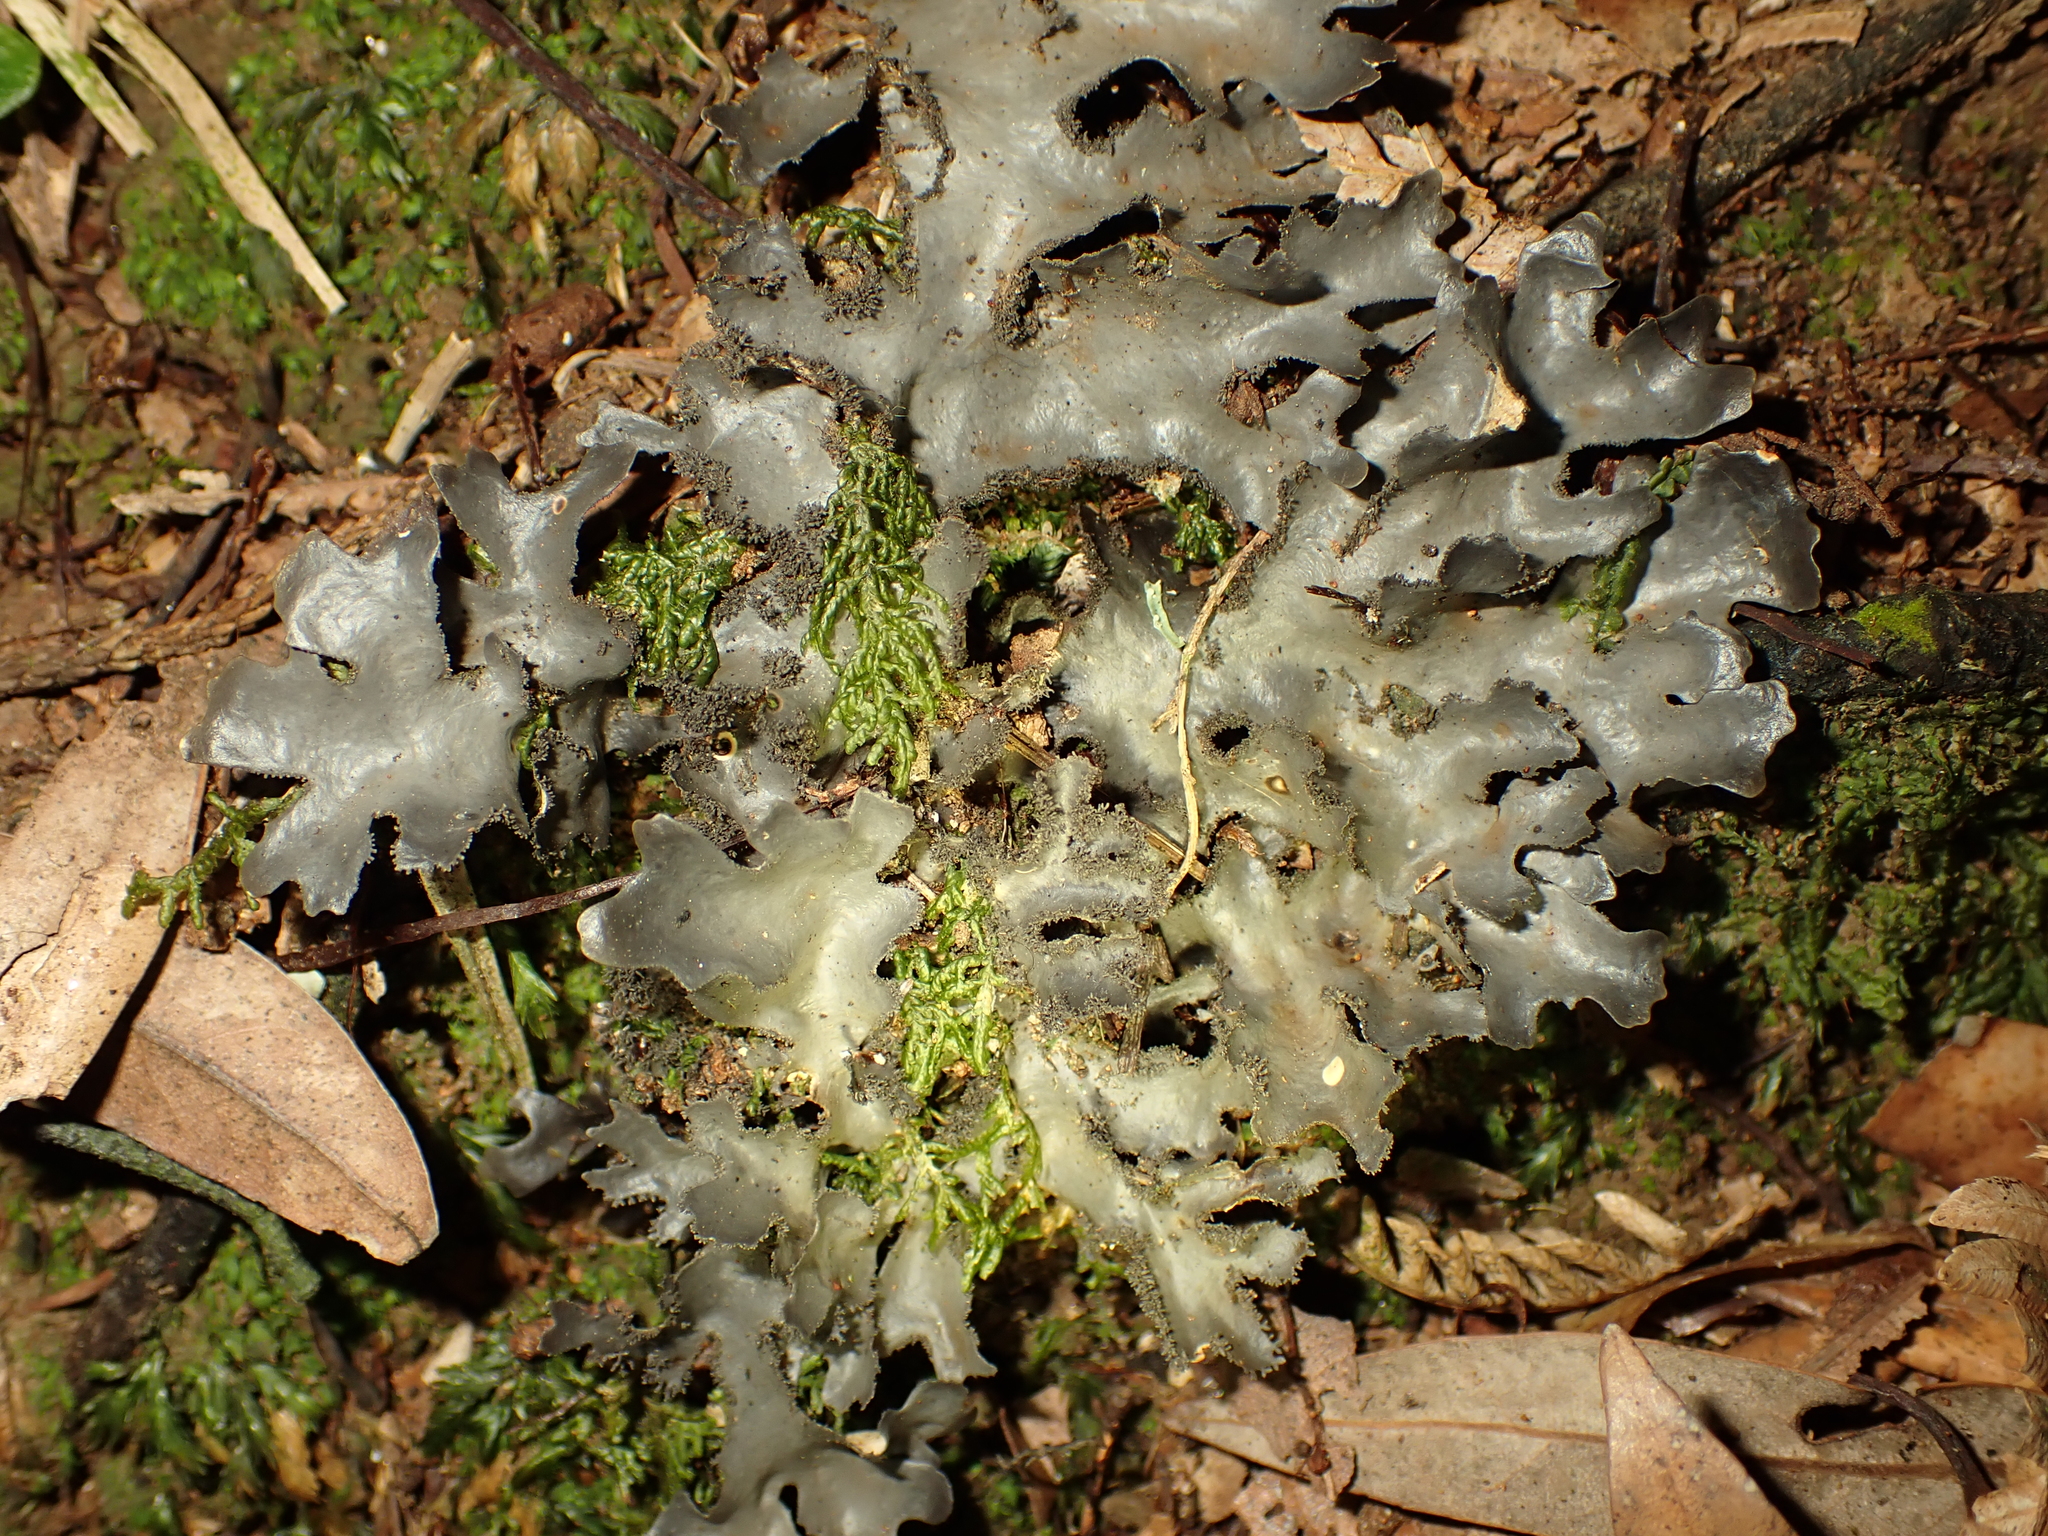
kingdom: Fungi
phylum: Ascomycota
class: Lecanoromycetes
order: Peltigerales
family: Lobariaceae
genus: Pseudocyphellaria
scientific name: Pseudocyphellaria dissimilis
